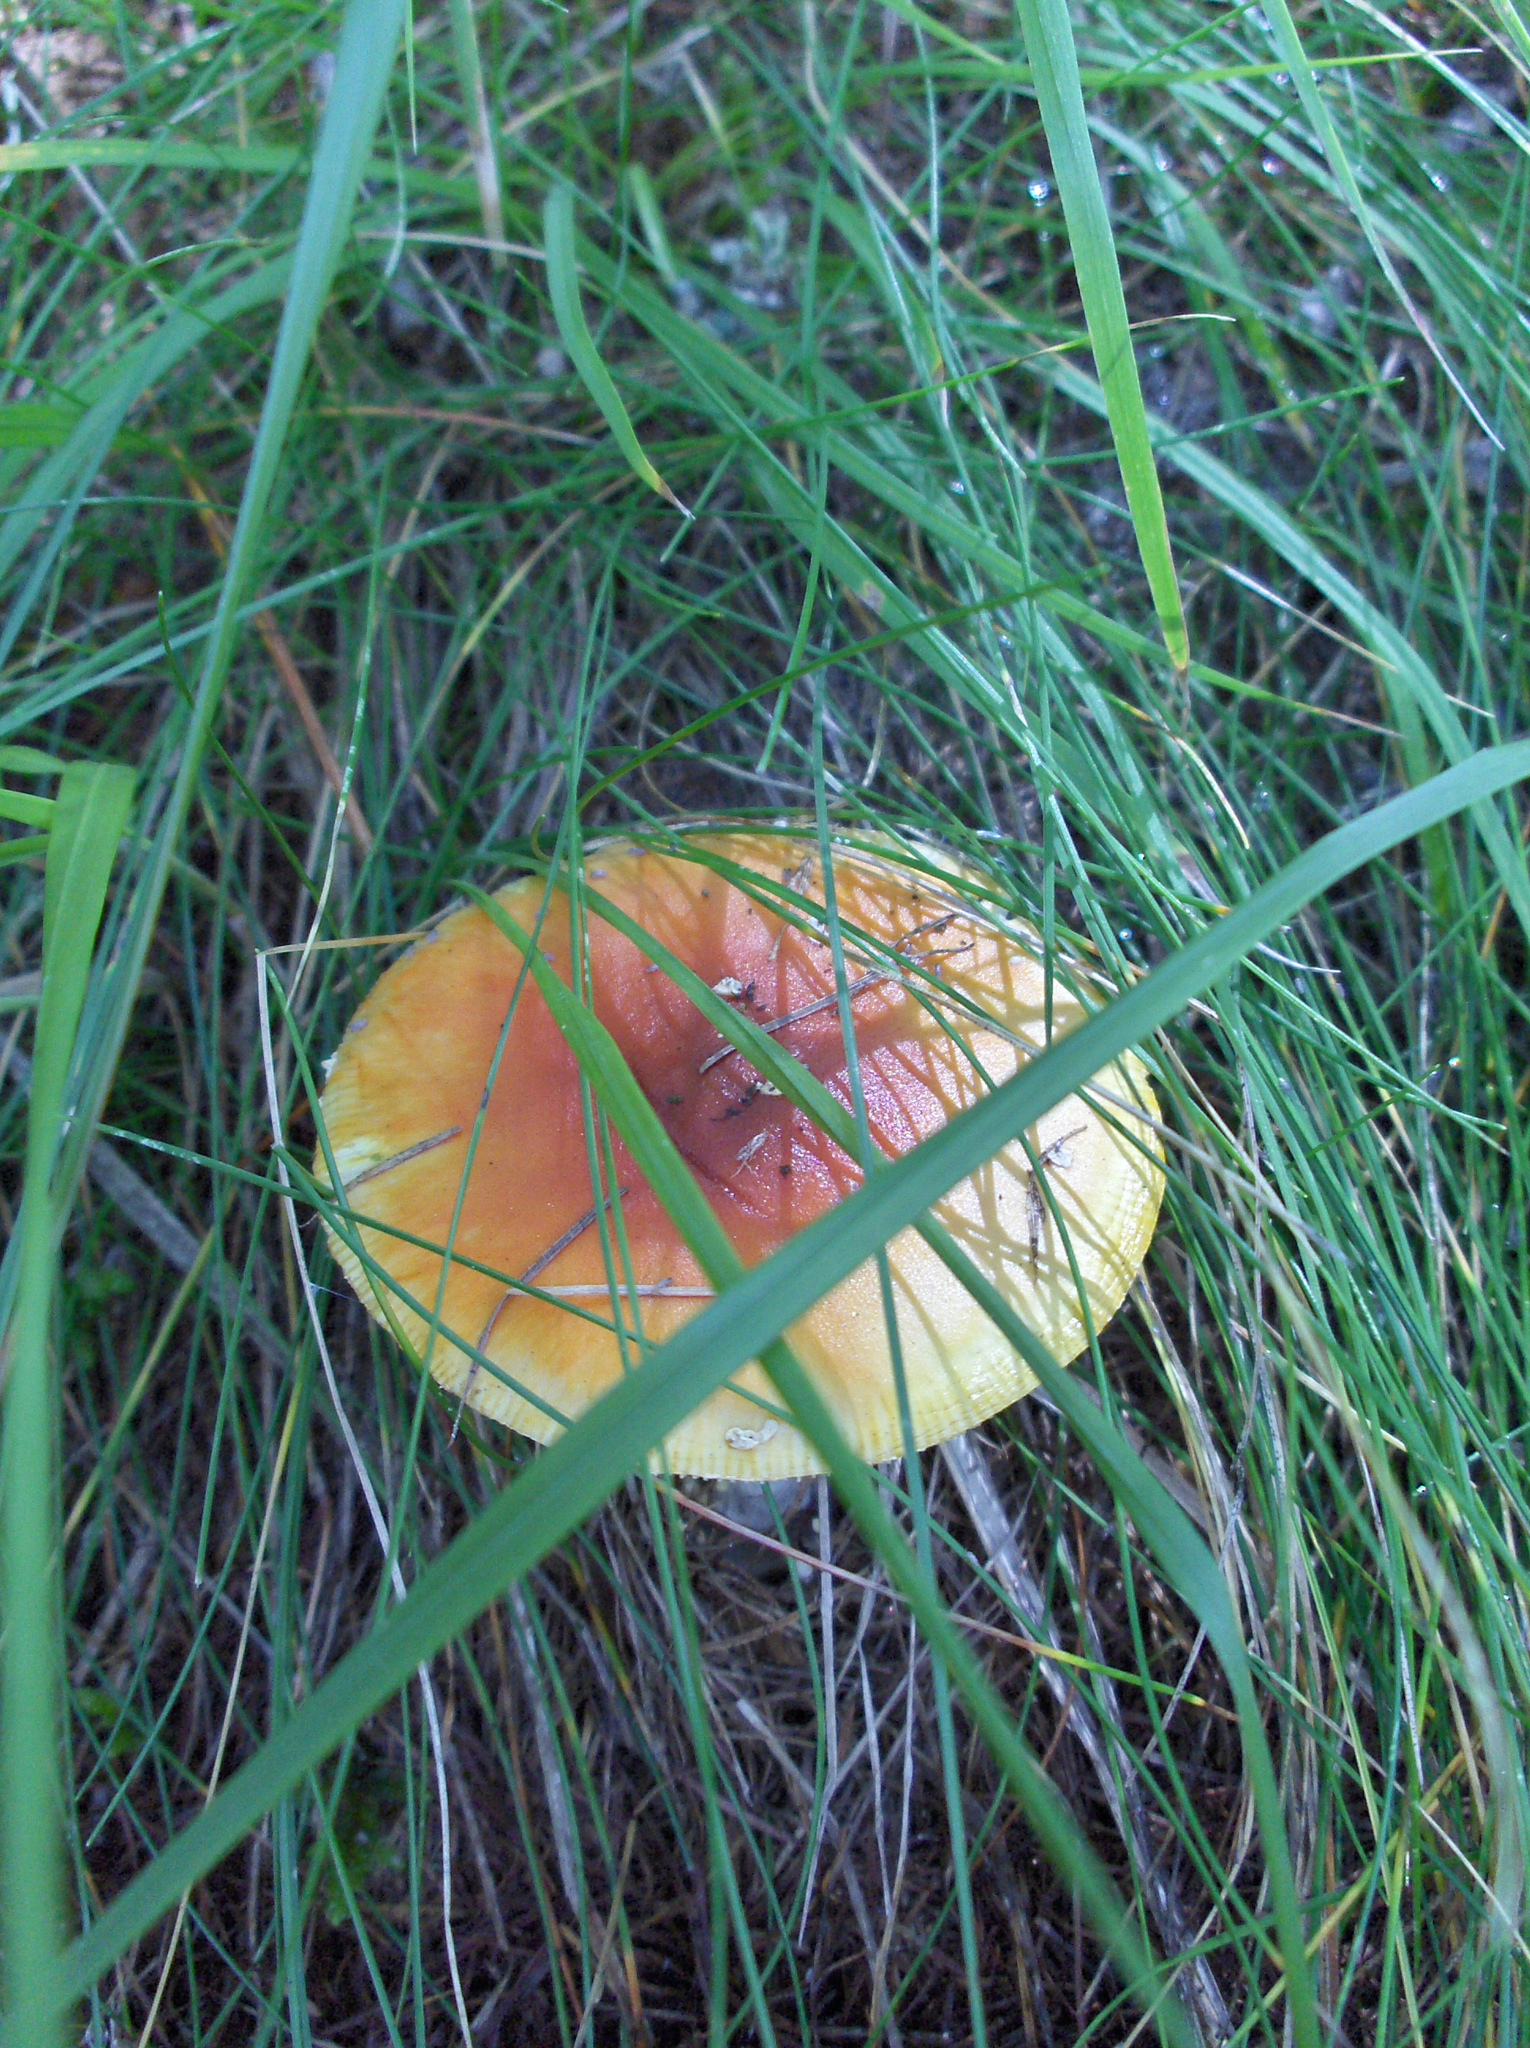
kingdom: Fungi
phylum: Basidiomycota
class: Agaricomycetes
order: Agaricales
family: Amanitaceae
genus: Amanita
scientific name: Amanita muscaria
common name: Fly agaric
